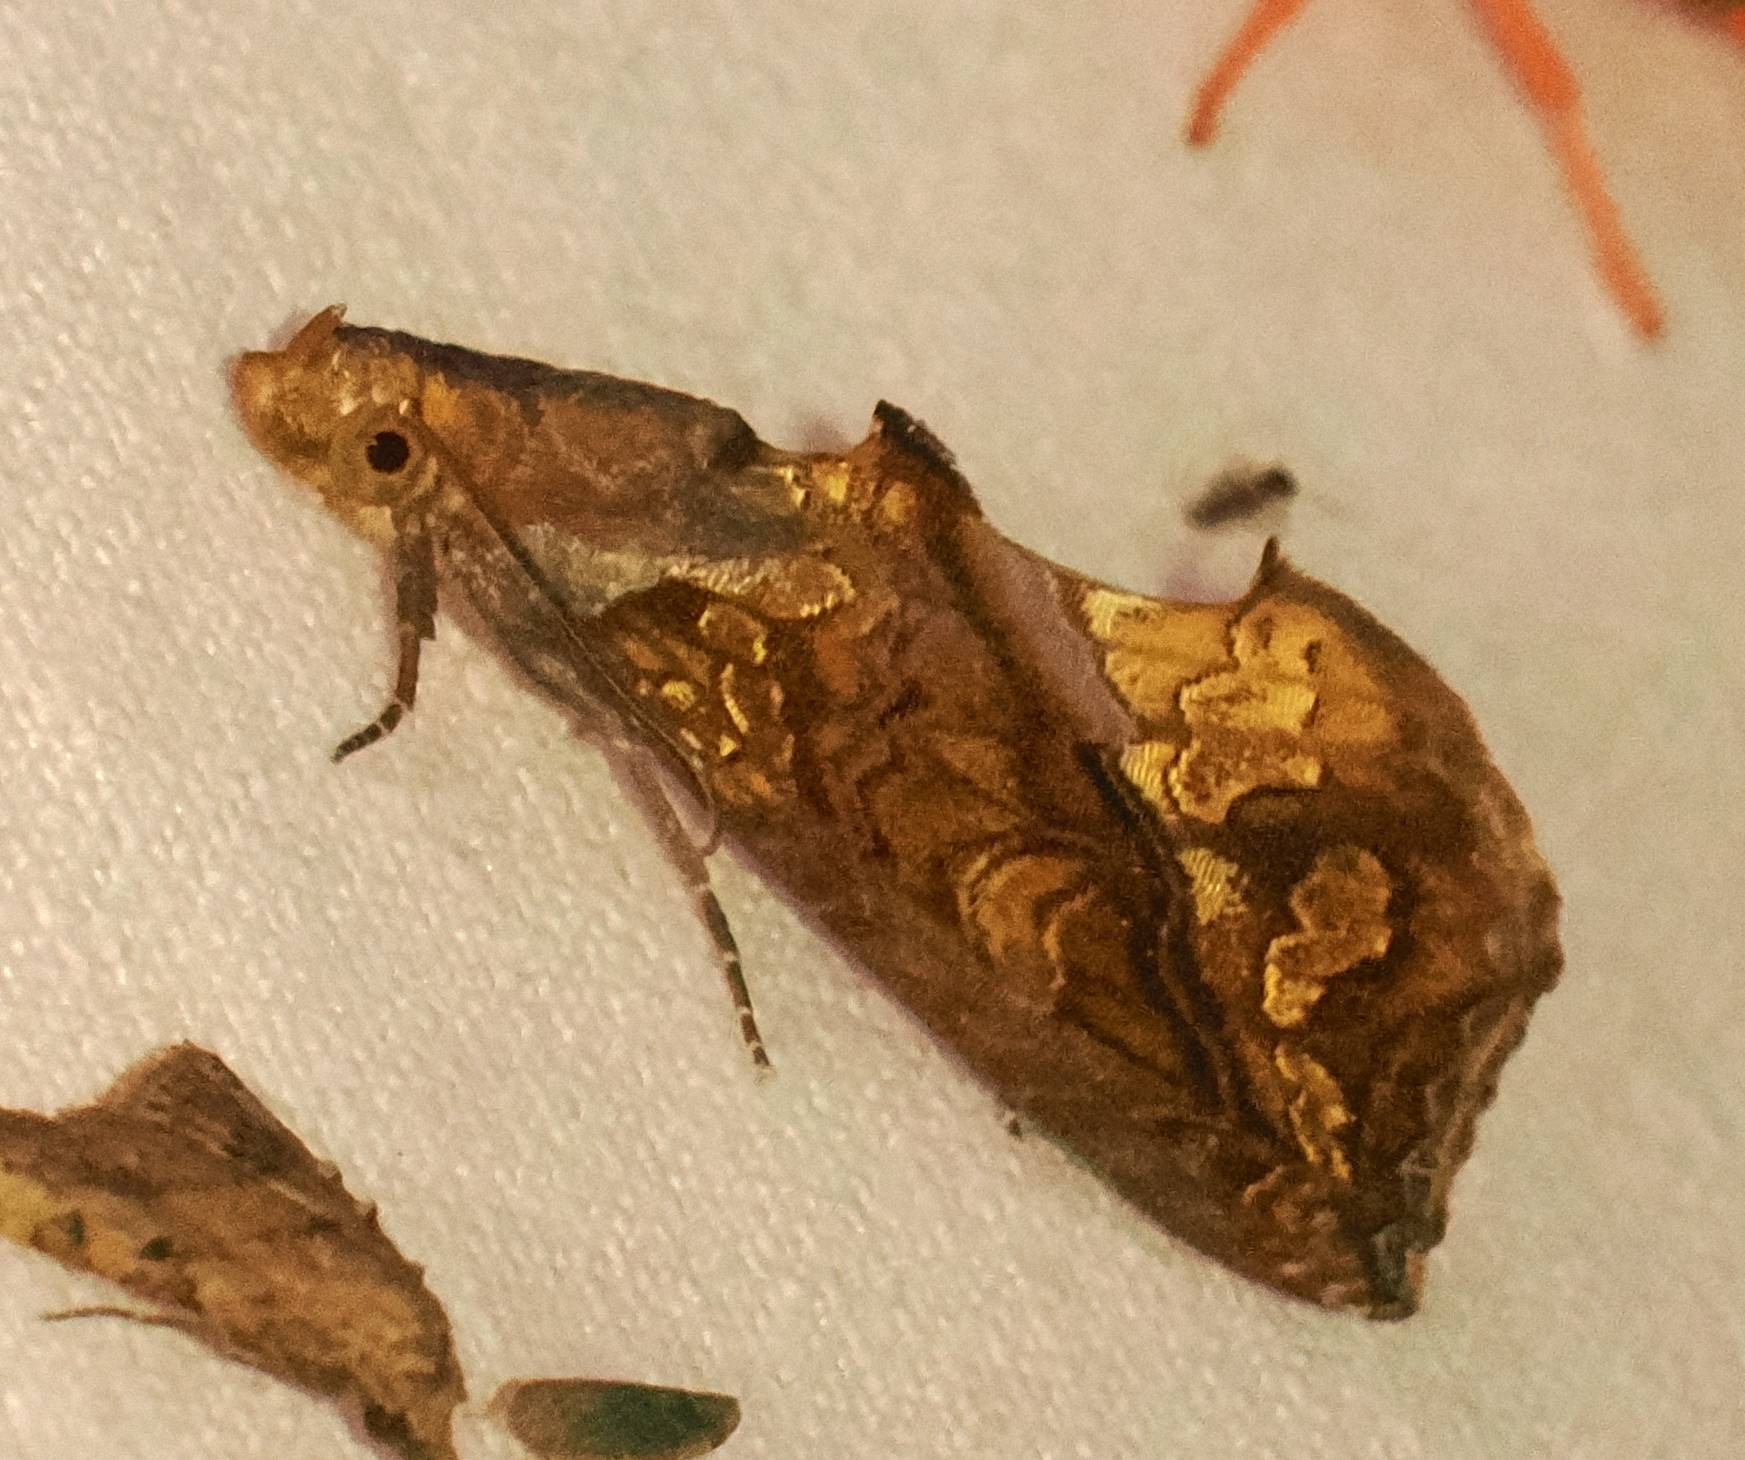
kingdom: Animalia
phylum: Arthropoda
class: Insecta
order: Lepidoptera
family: Erebidae
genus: Plusiodonta
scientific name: Plusiodonta coelonota
